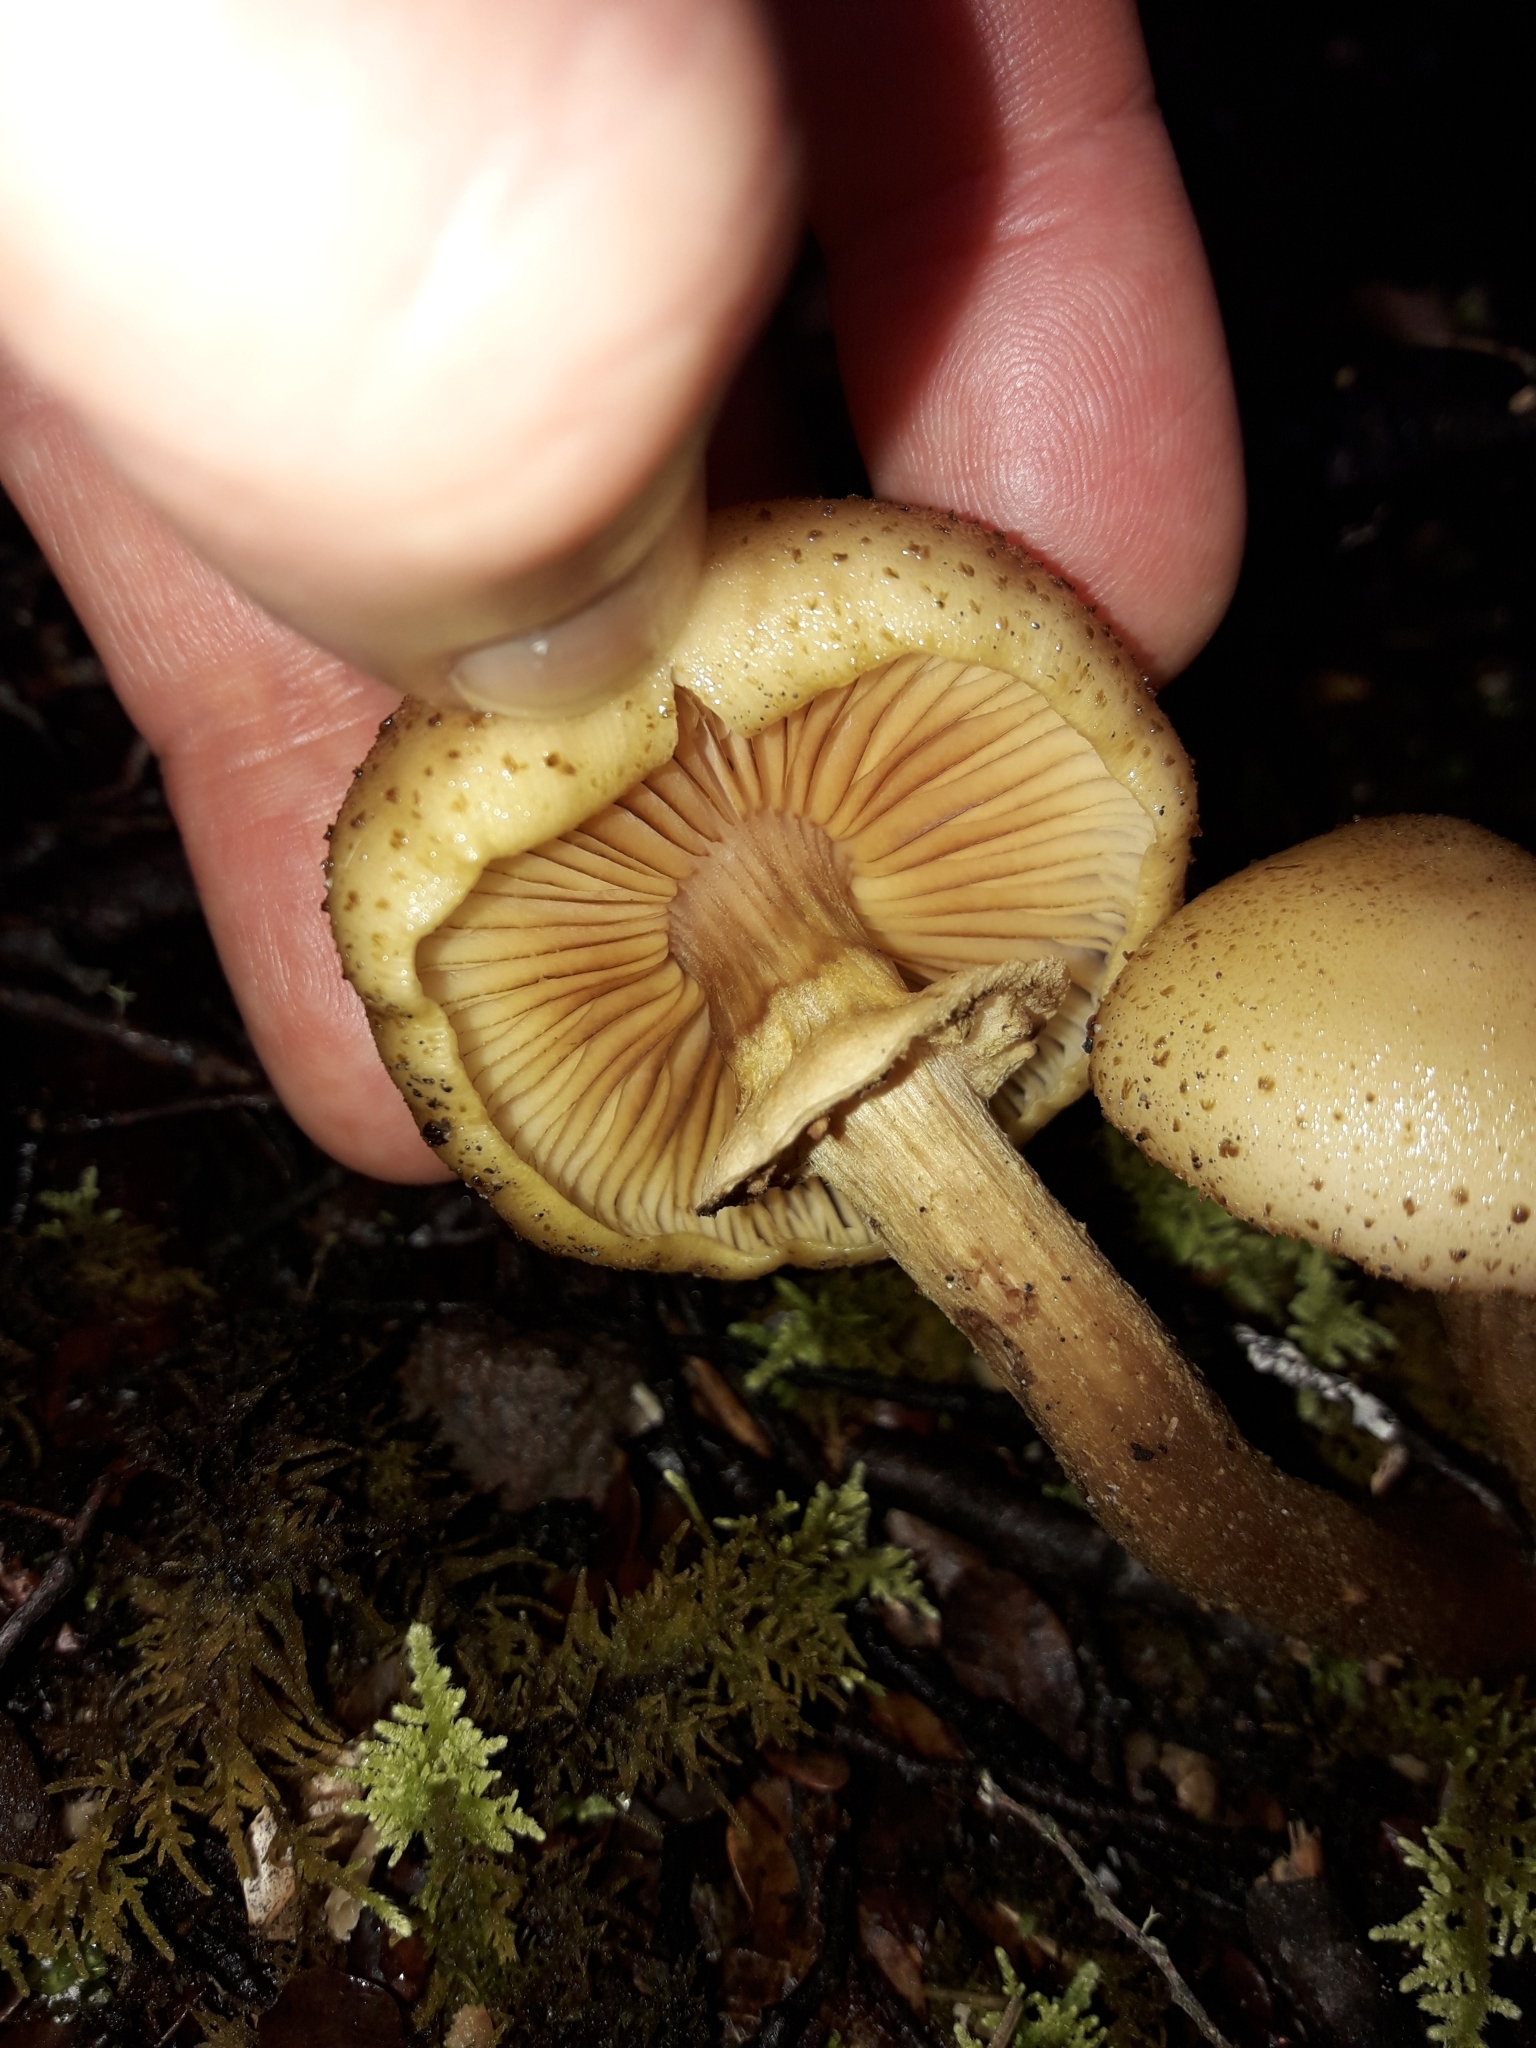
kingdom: Fungi
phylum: Basidiomycota
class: Agaricomycetes
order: Agaricales
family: Physalacriaceae
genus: Armillaria
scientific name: Armillaria limonea
